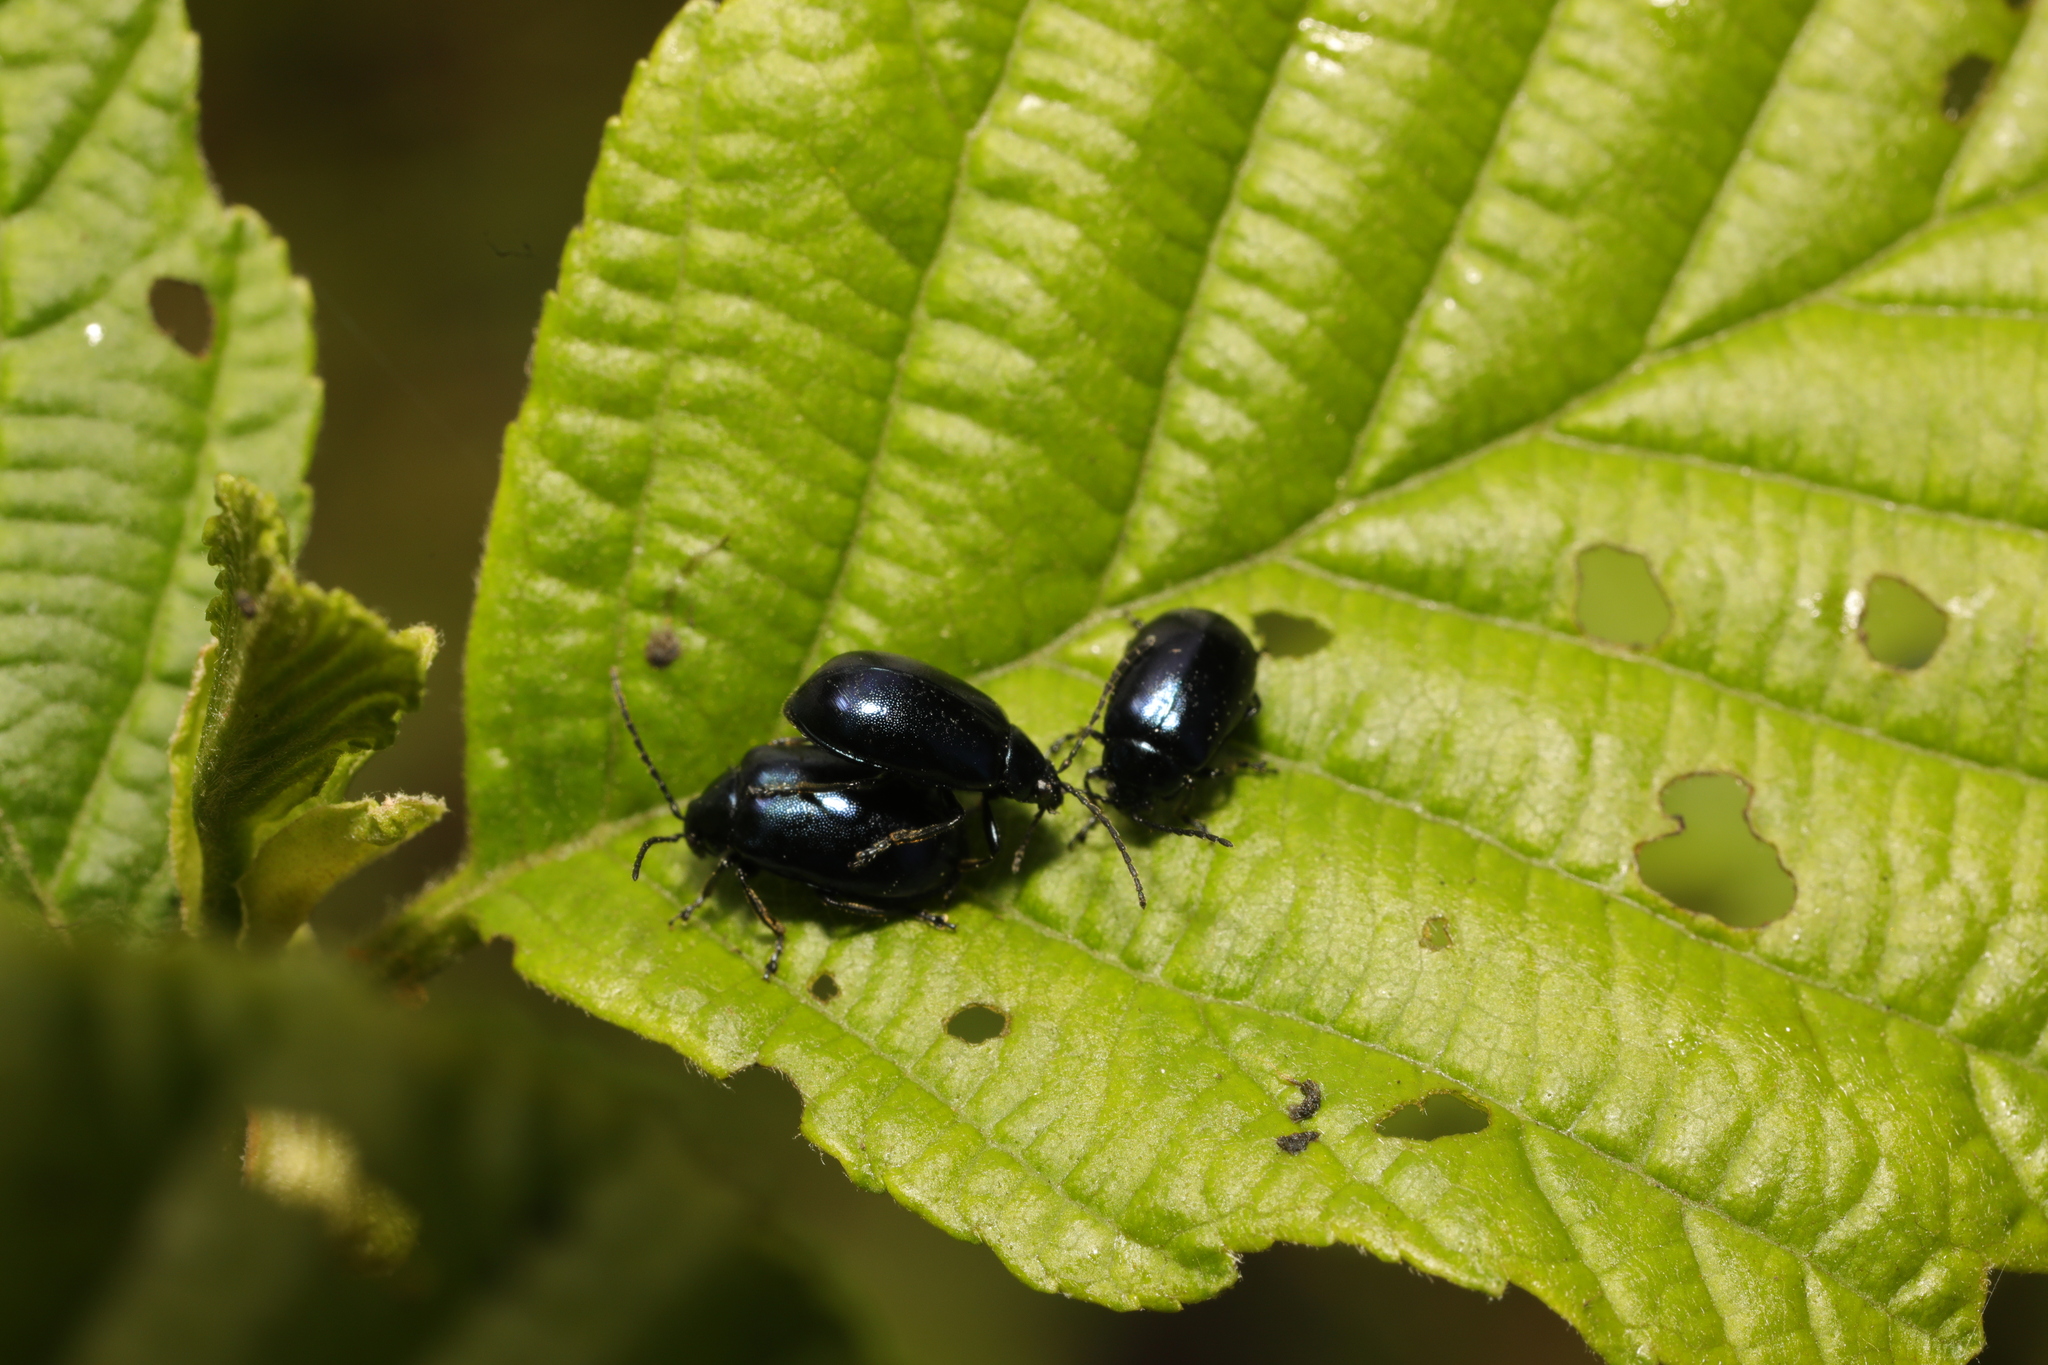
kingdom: Animalia
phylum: Arthropoda
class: Insecta
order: Coleoptera
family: Chrysomelidae
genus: Agelastica
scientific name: Agelastica alni
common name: Alder leaf beetle
